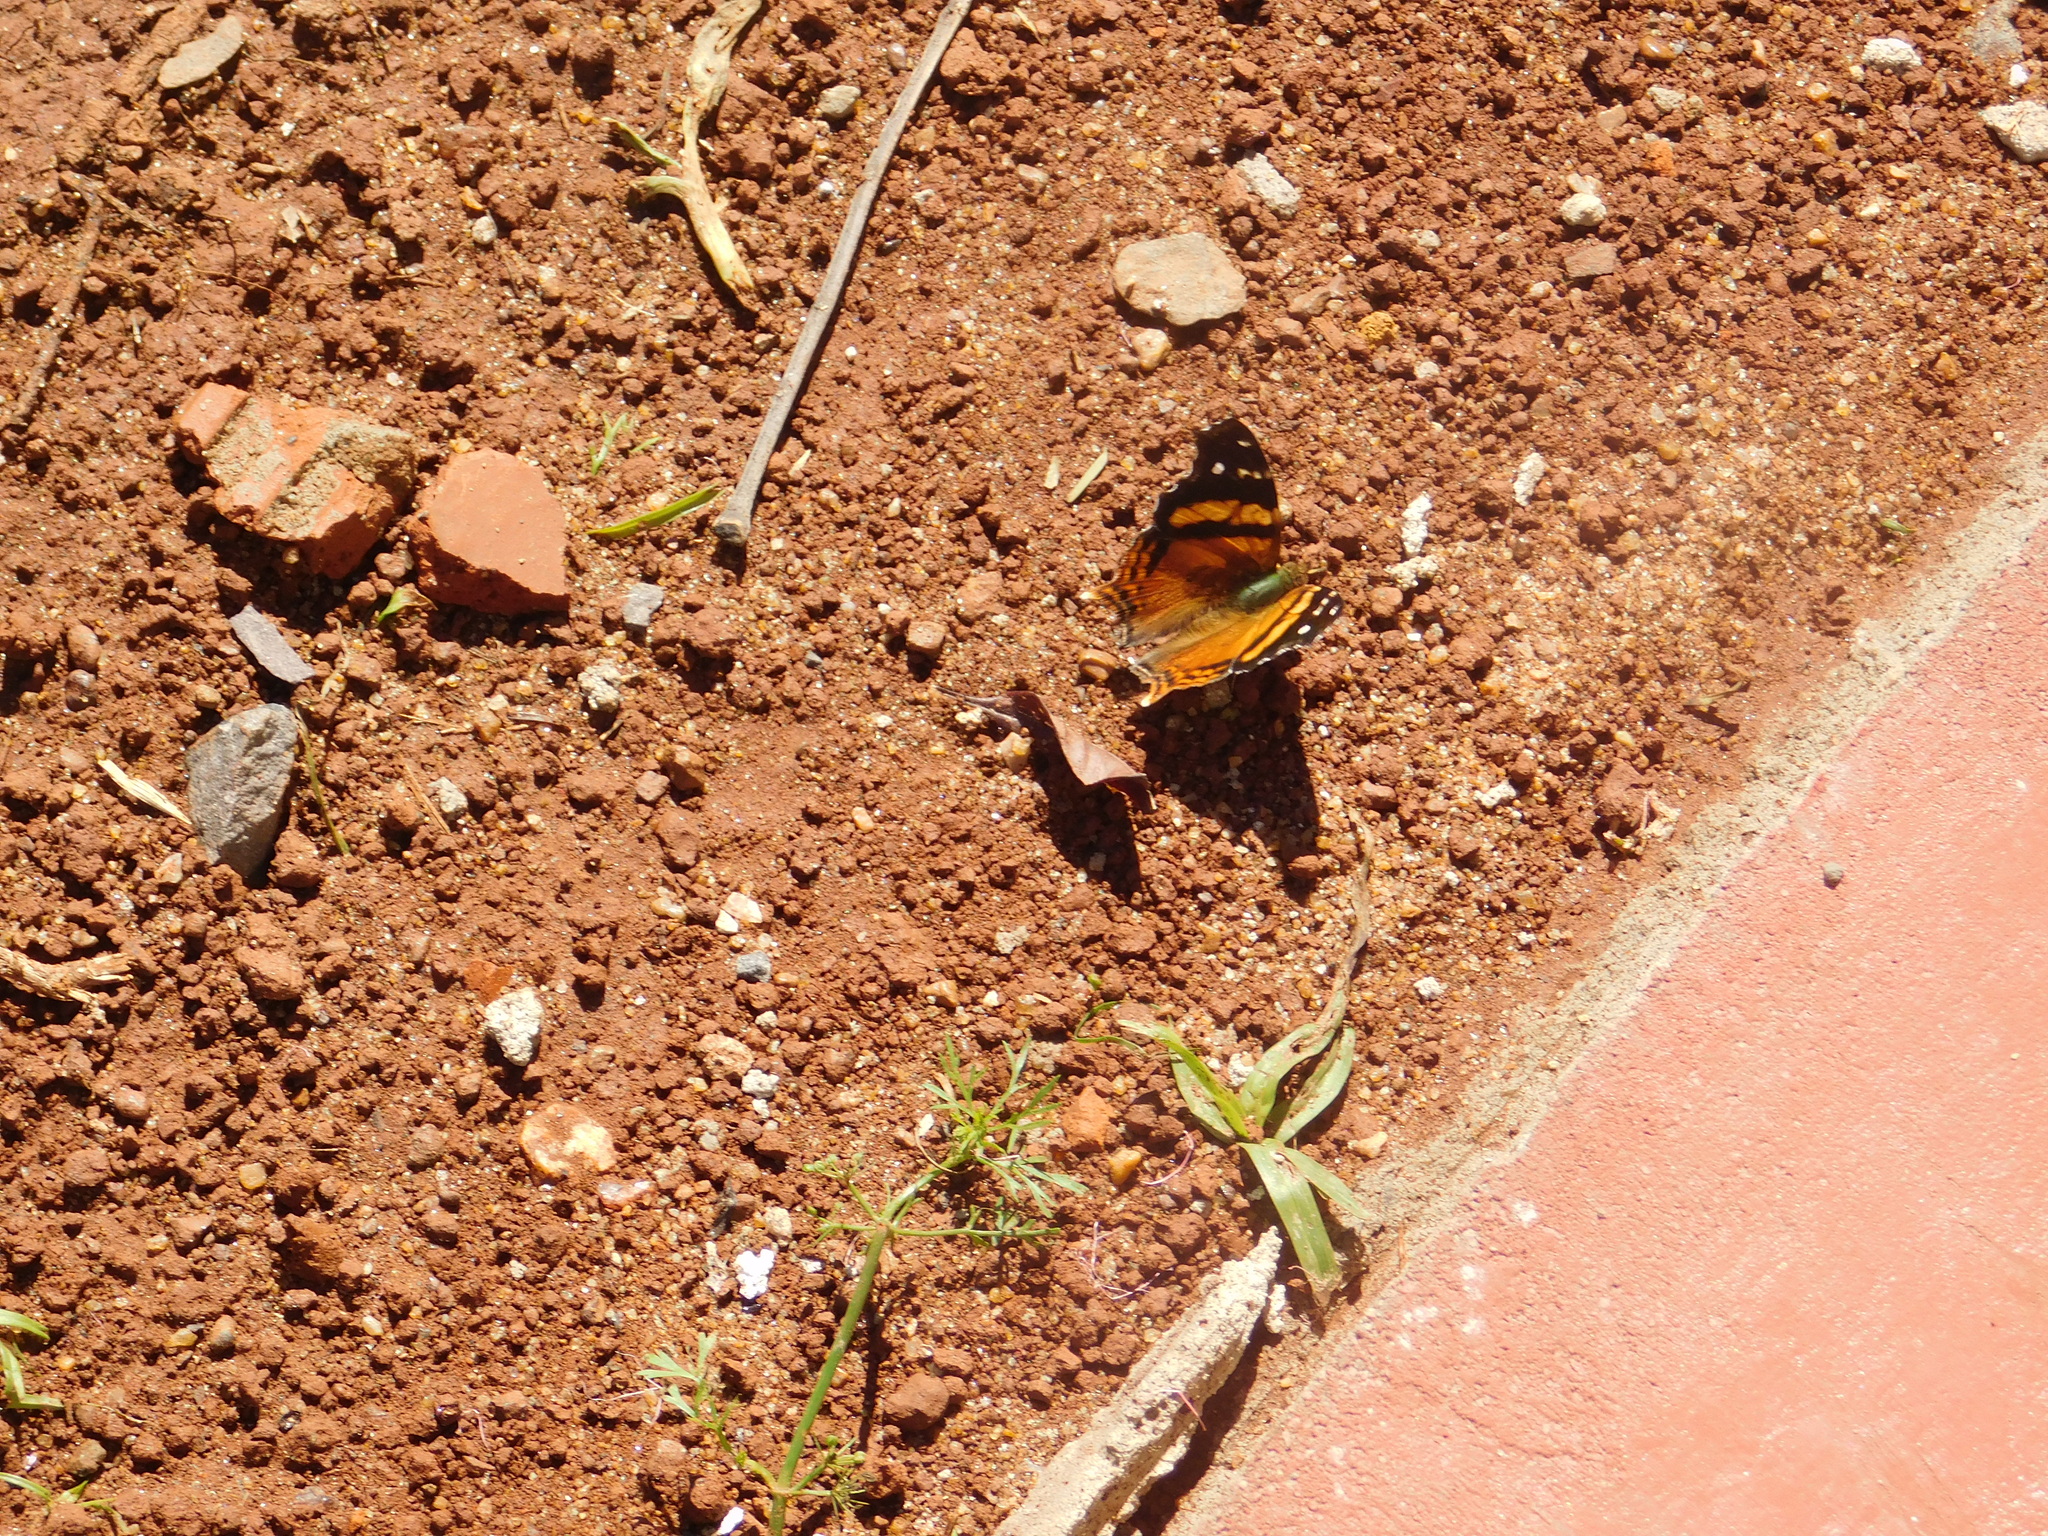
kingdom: Animalia
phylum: Arthropoda
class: Insecta
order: Lepidoptera
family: Nymphalidae
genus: Hypanartia
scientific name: Hypanartia bella
